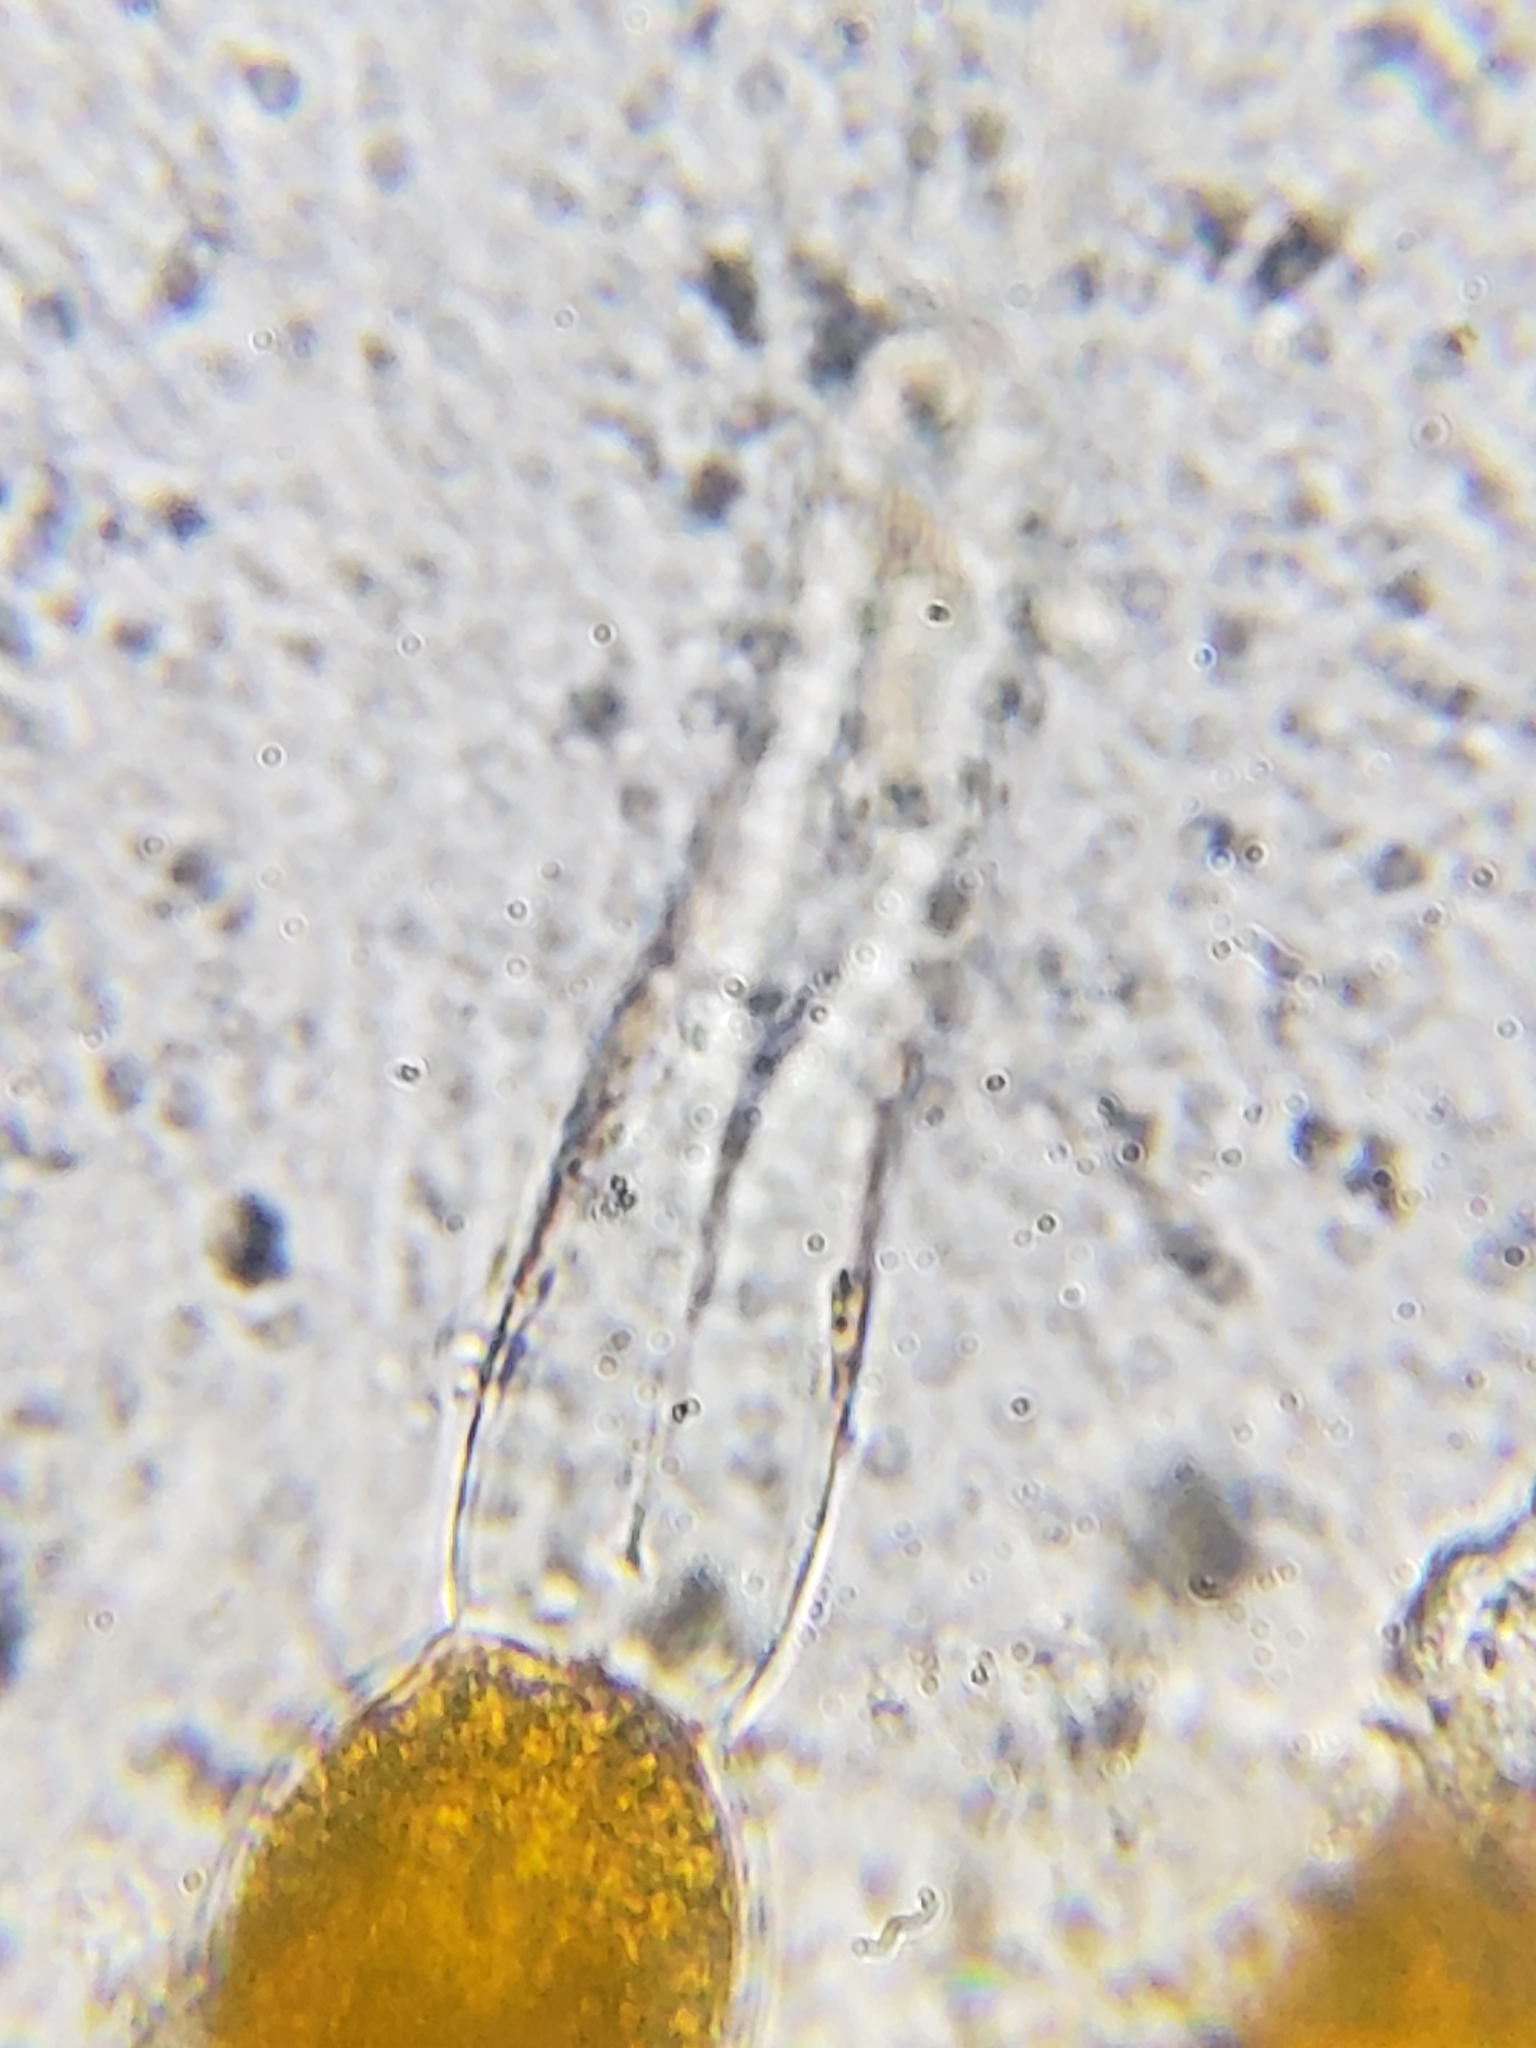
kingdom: Fungi
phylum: Basidiomycota
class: Pucciniomycetes
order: Pucciniales
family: Gymnosporangiaceae
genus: Gymnosporangium
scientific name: Gymnosporangium clavipes
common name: Quince rust
